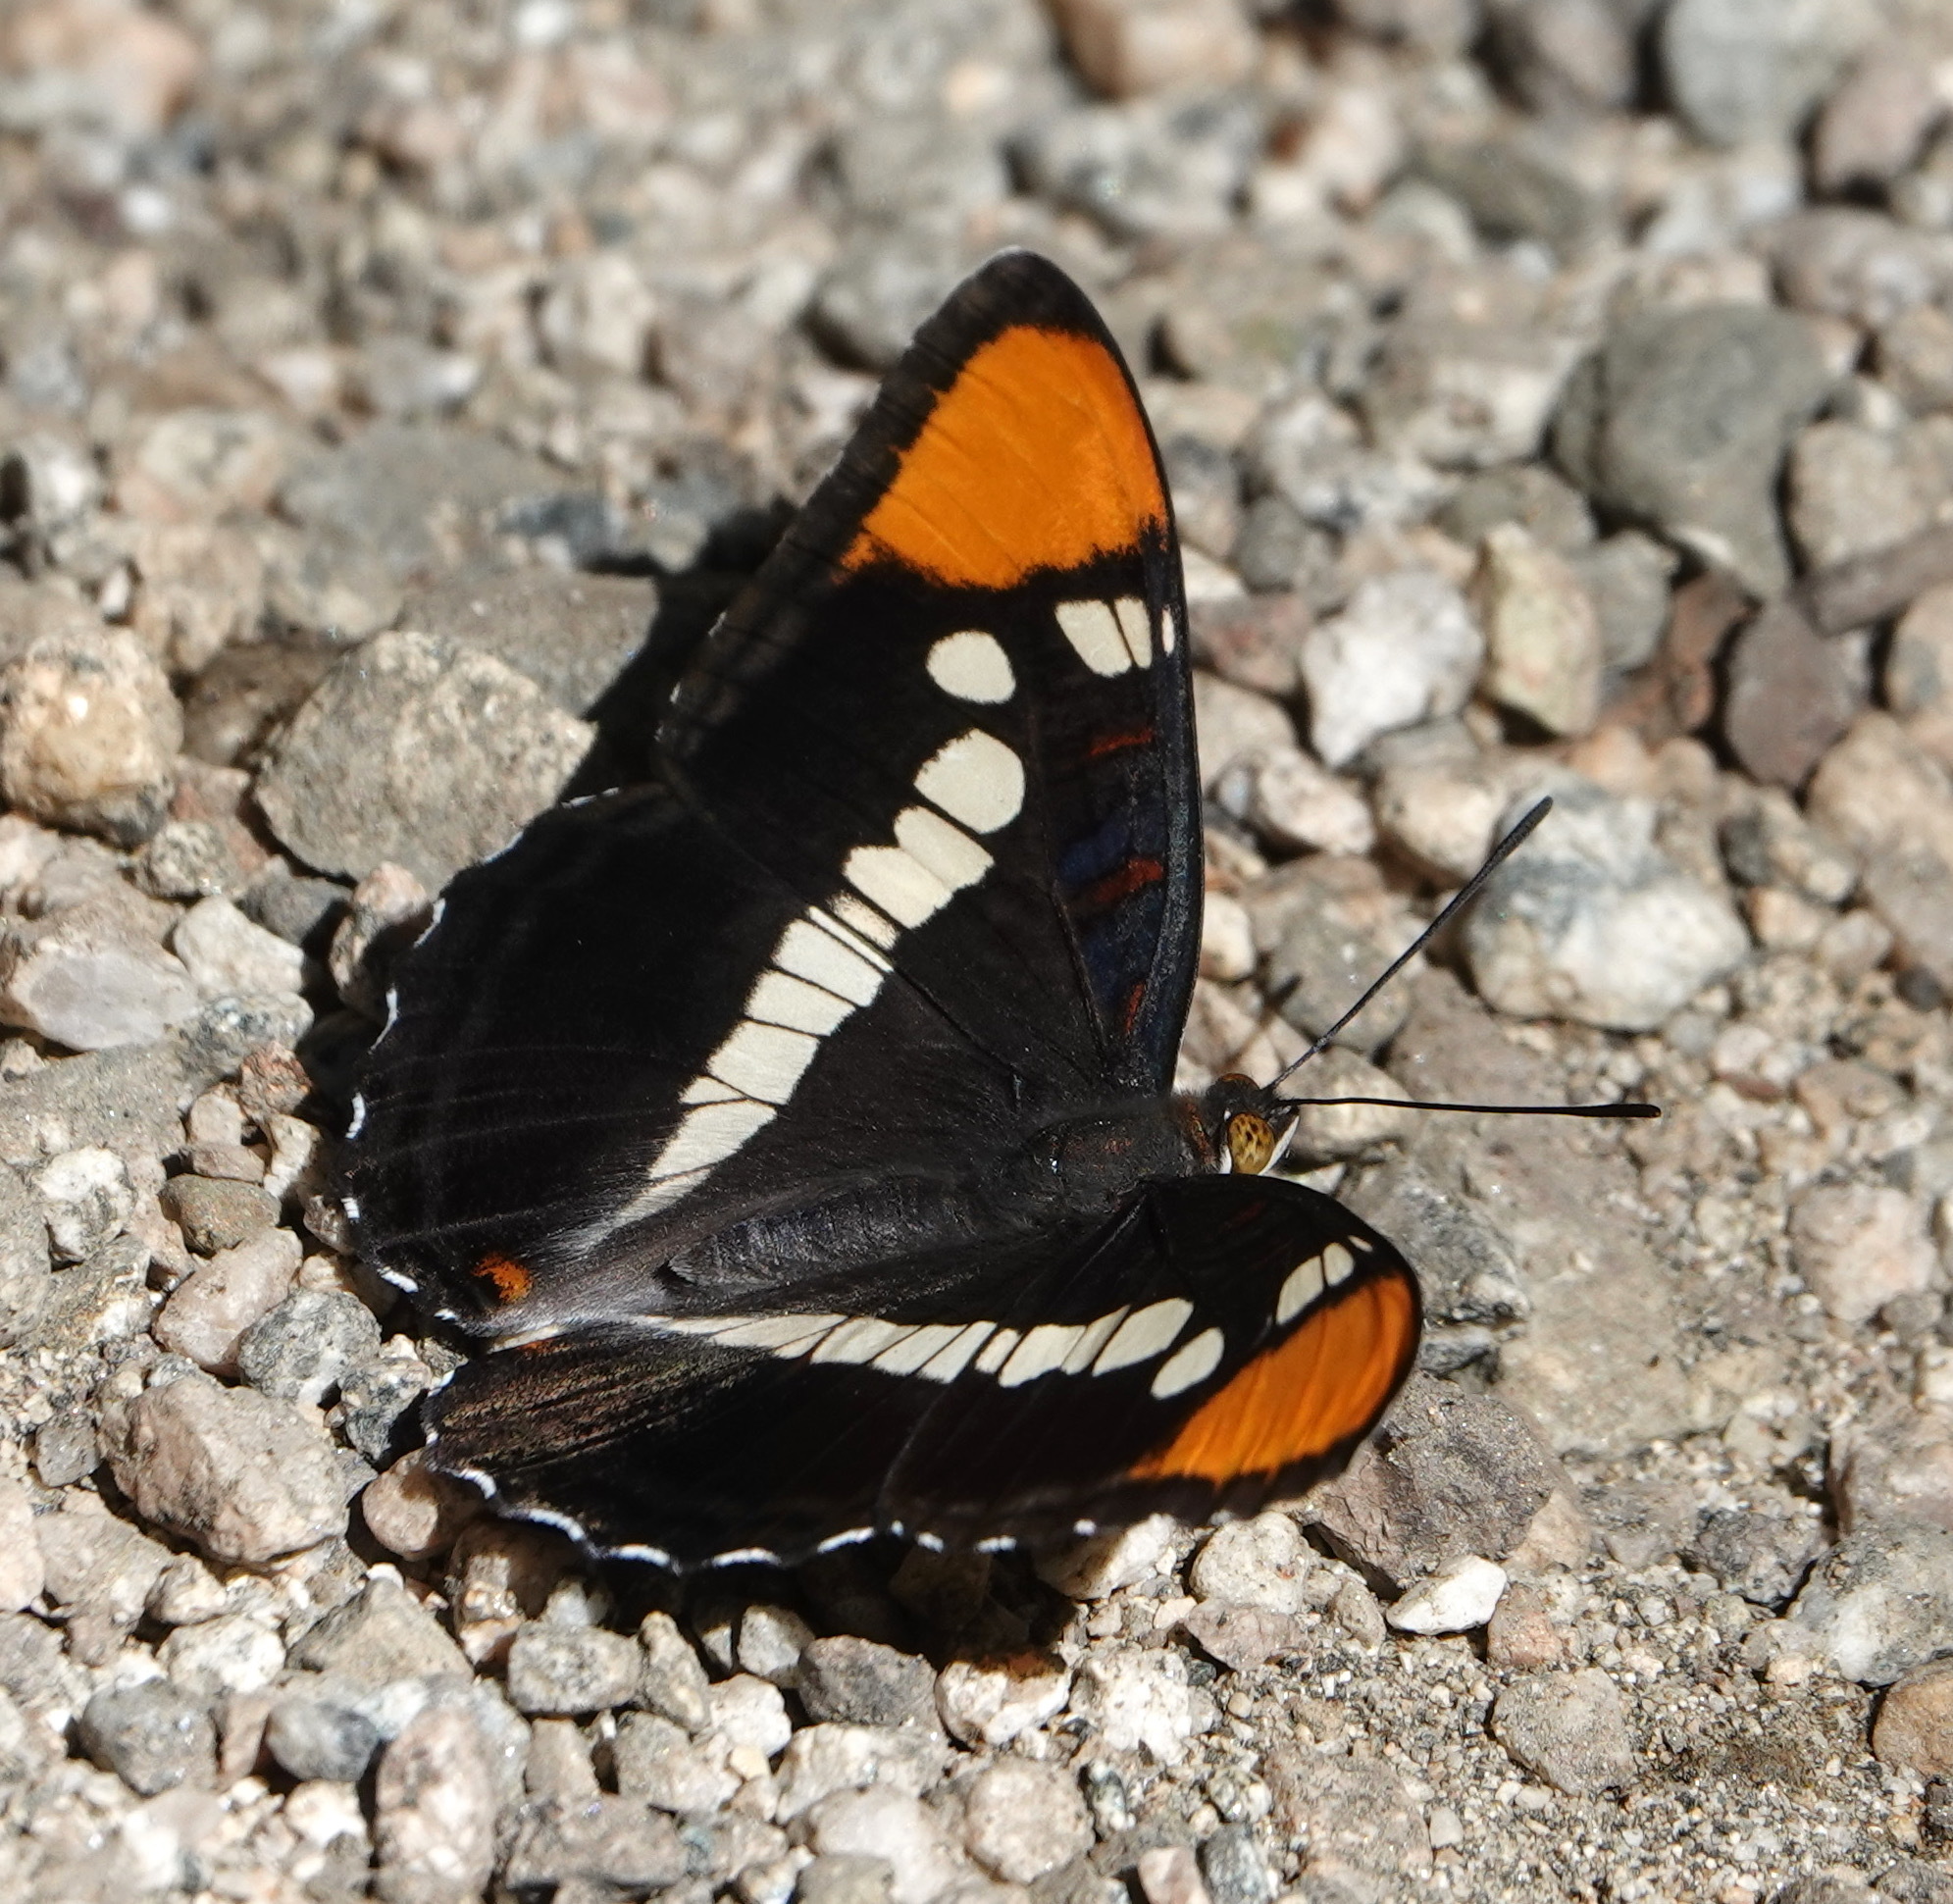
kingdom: Animalia
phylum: Arthropoda
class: Insecta
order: Lepidoptera
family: Nymphalidae
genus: Limenitis
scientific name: Limenitis bredowii
